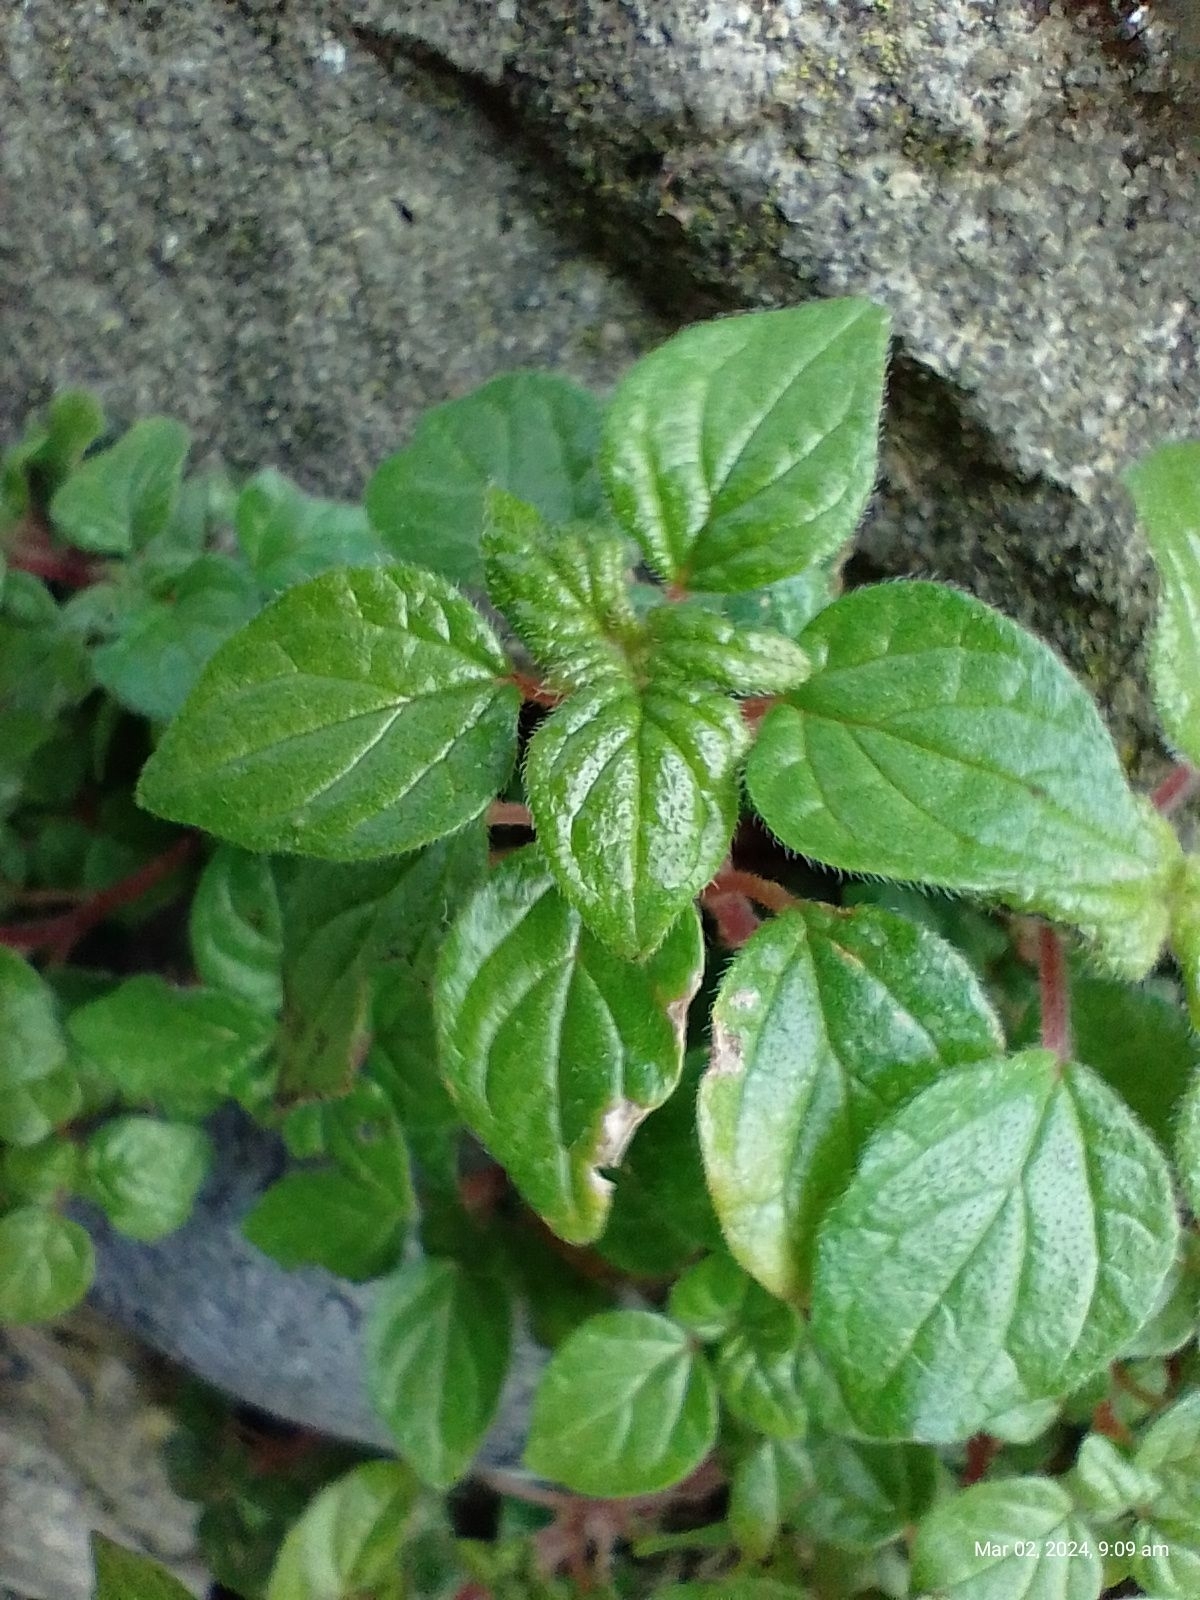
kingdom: Plantae
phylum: Tracheophyta
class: Magnoliopsida
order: Rosales
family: Urticaceae
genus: Parietaria
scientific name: Parietaria judaica
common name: Pellitory-of-the-wall
